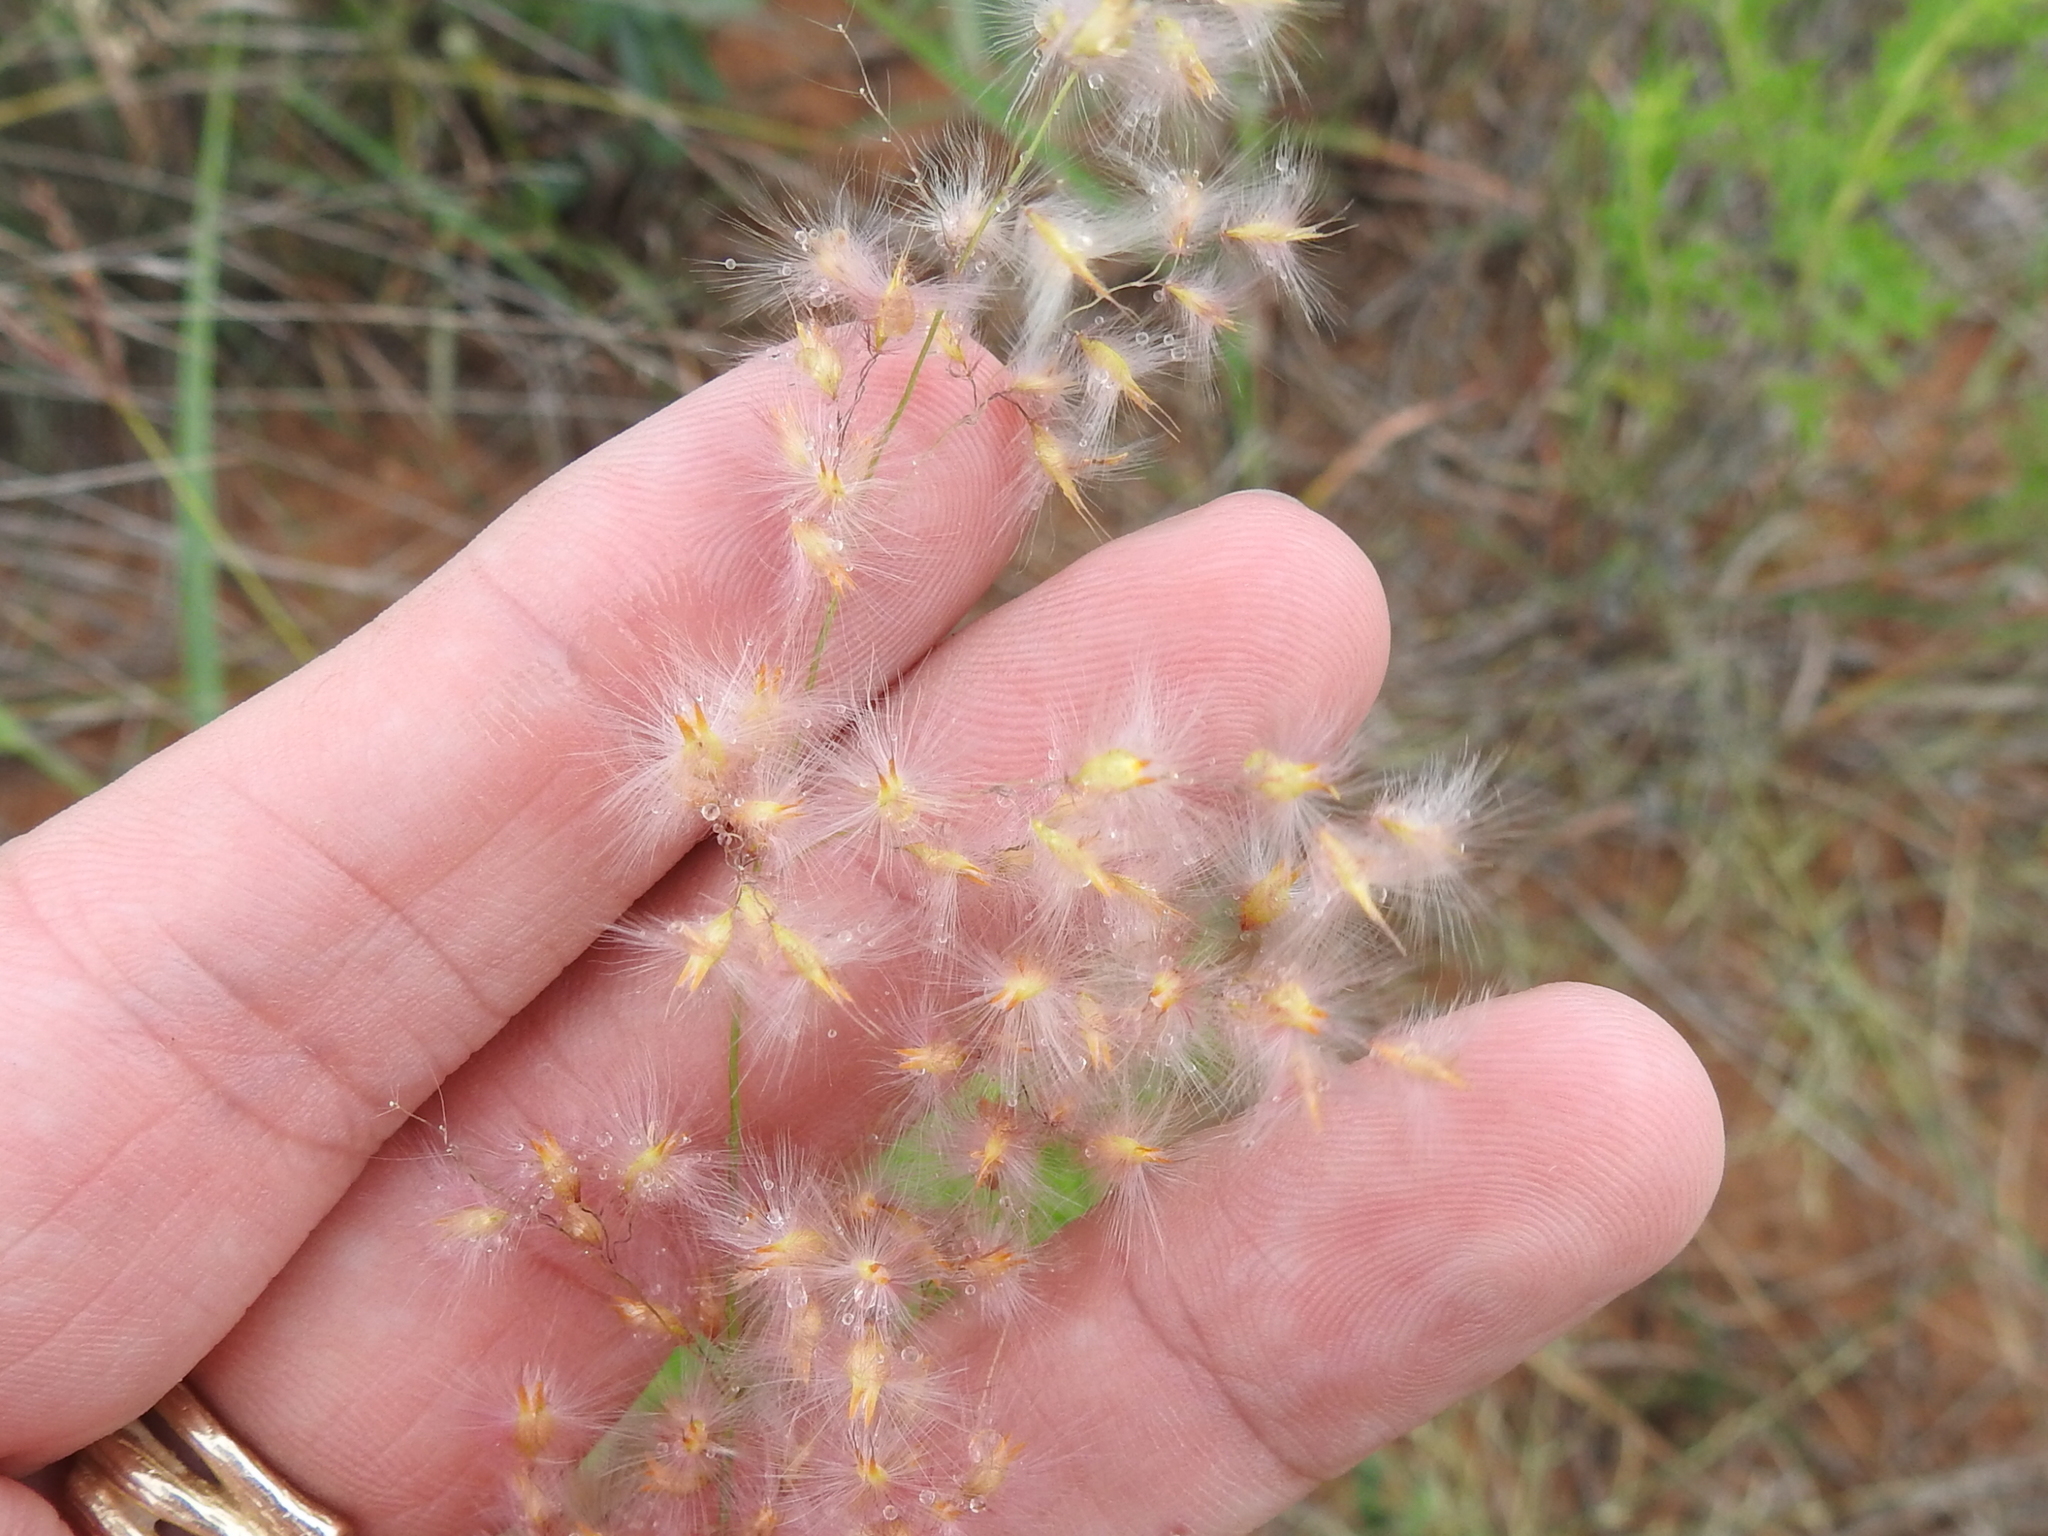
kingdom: Plantae
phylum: Tracheophyta
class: Liliopsida
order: Poales
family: Poaceae
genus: Melinis
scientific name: Melinis repens
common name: Rose natal grass
